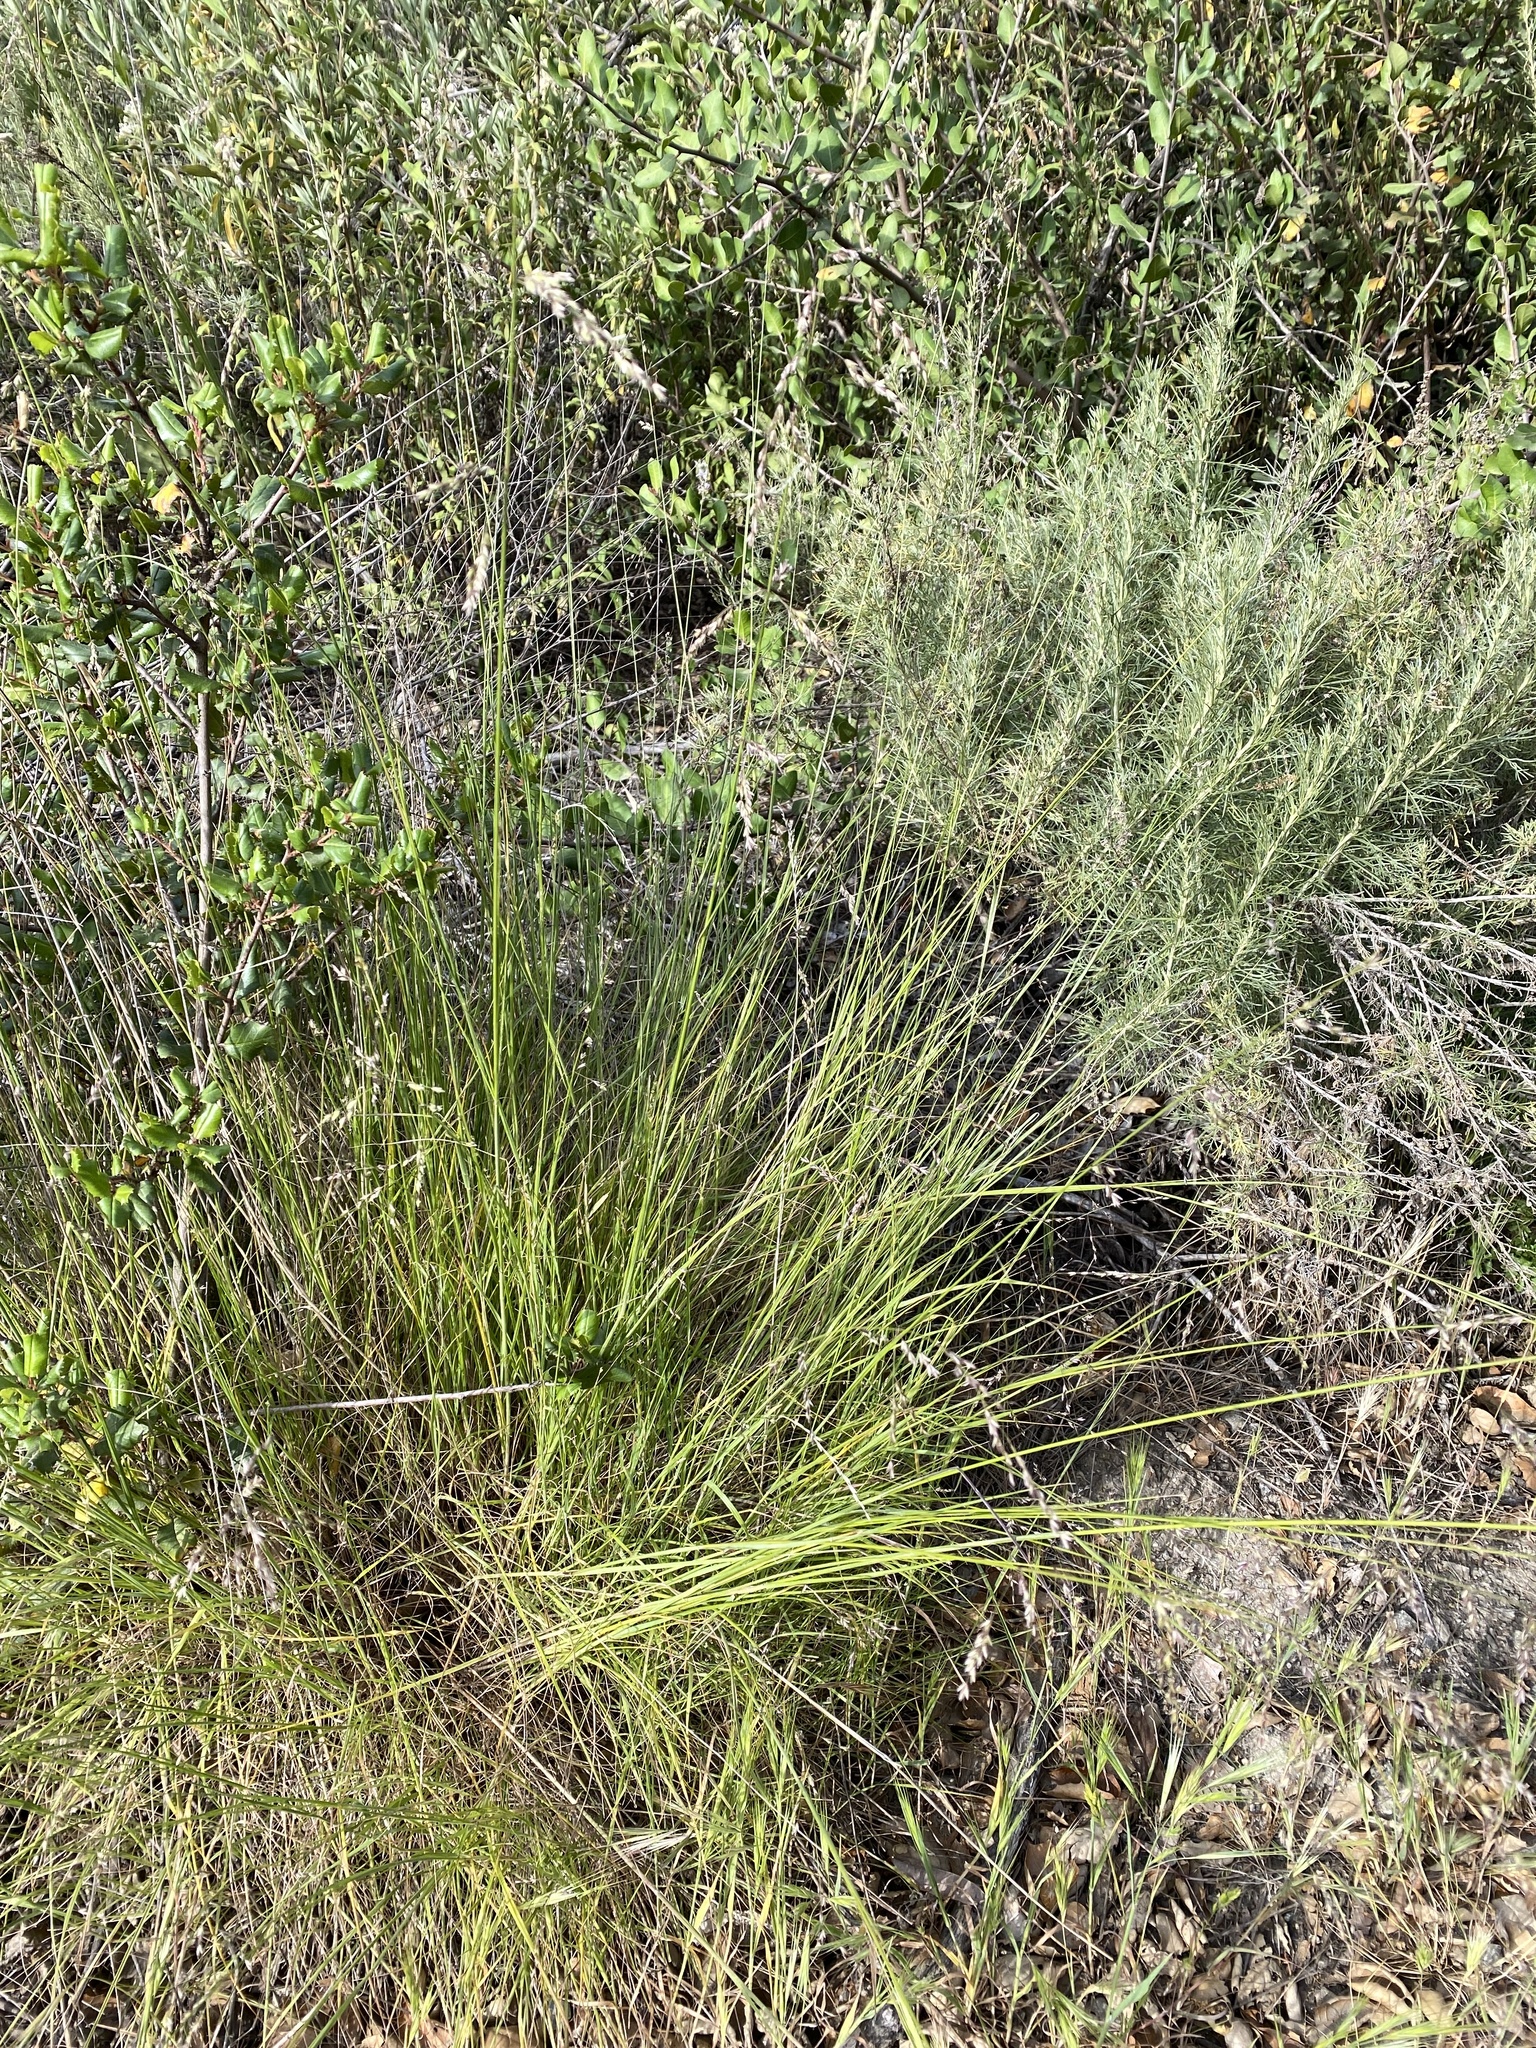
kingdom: Plantae
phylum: Tracheophyta
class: Liliopsida
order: Poales
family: Poaceae
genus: Melica
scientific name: Melica imperfecta
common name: California melic
